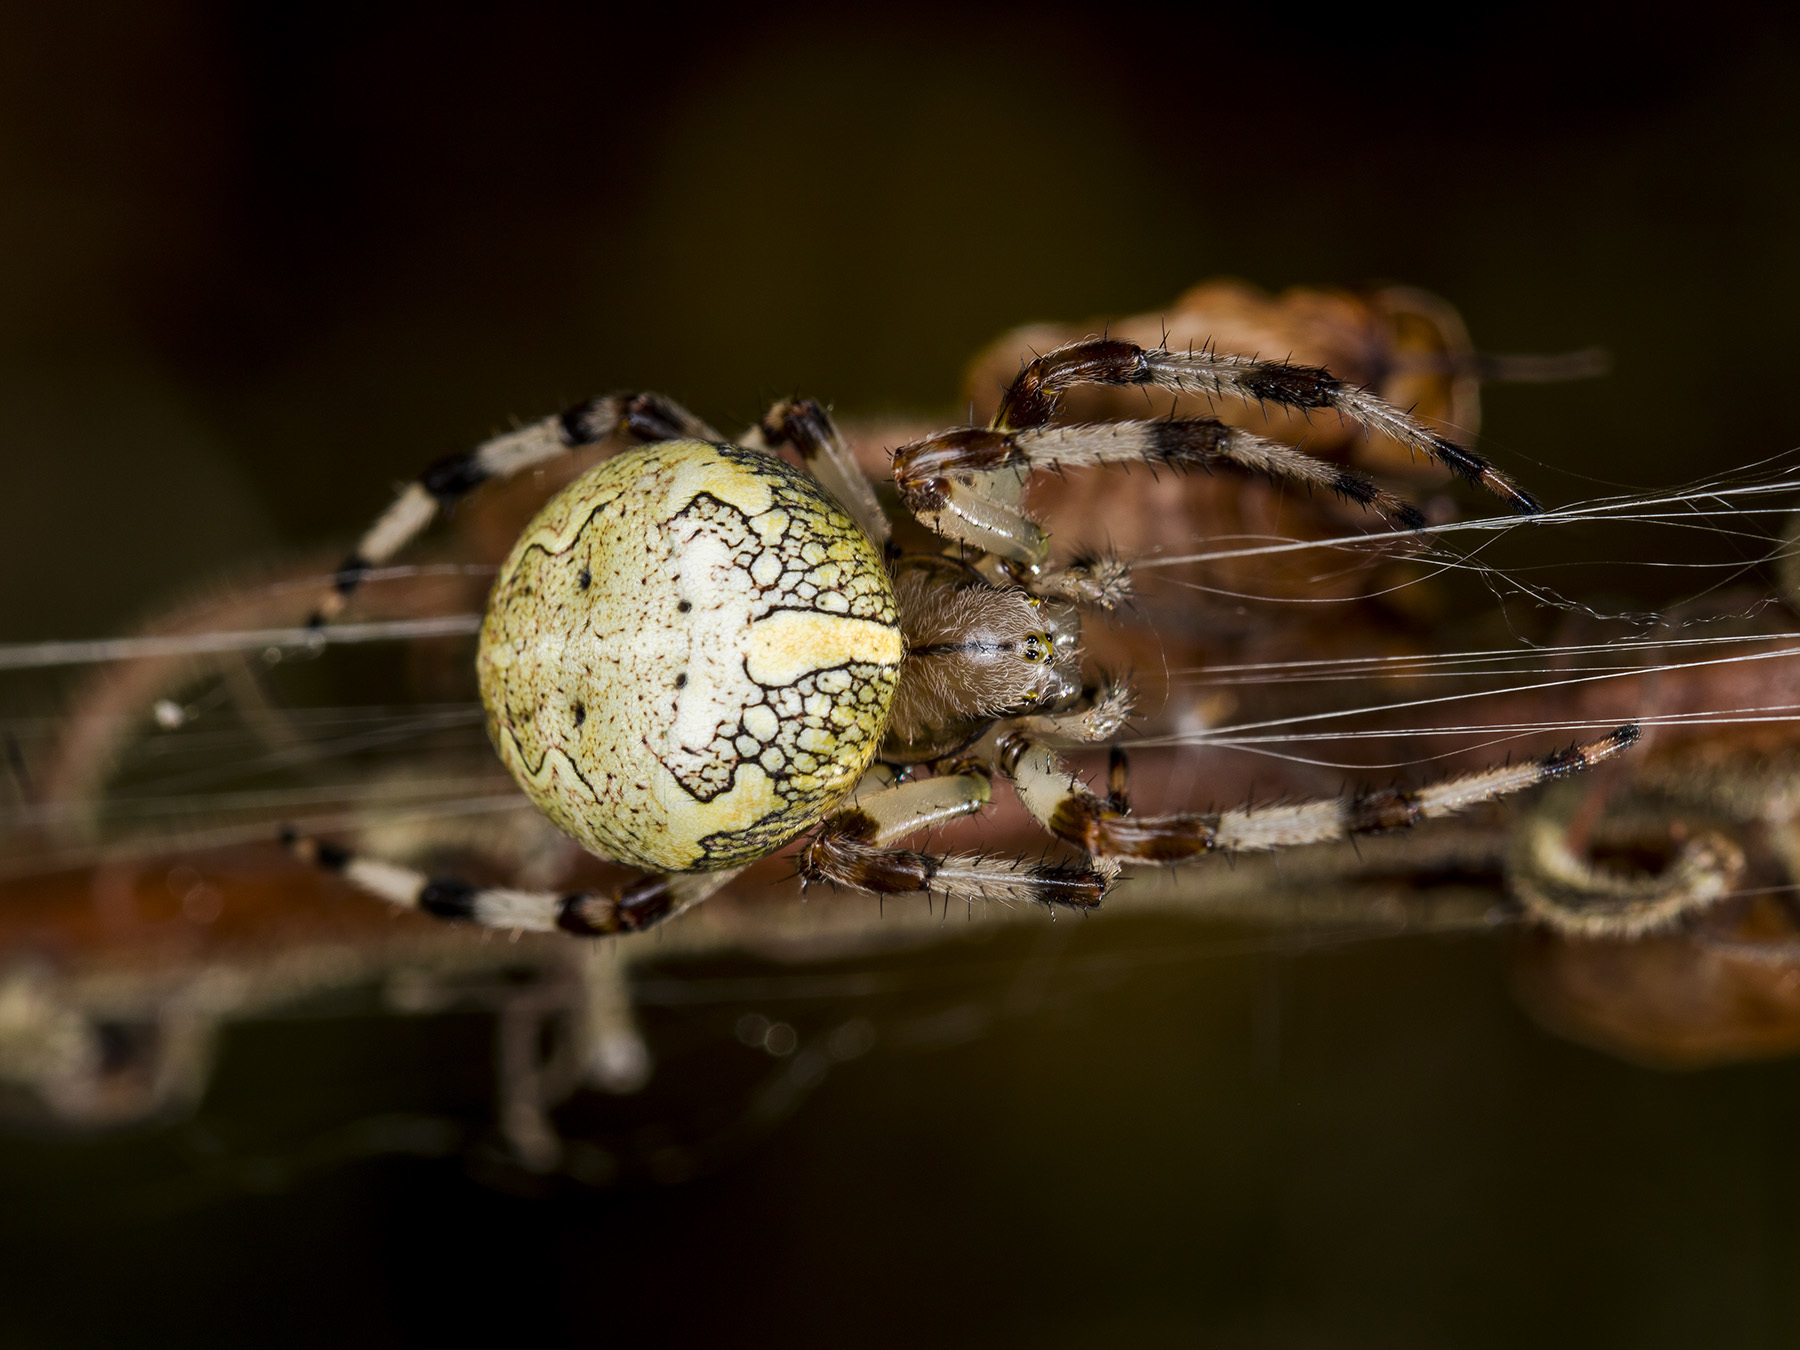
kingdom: Animalia
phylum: Arthropoda
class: Arachnida
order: Araneae
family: Araneidae
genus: Araneus
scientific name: Araneus marmoreus
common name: Marbled orbweaver
